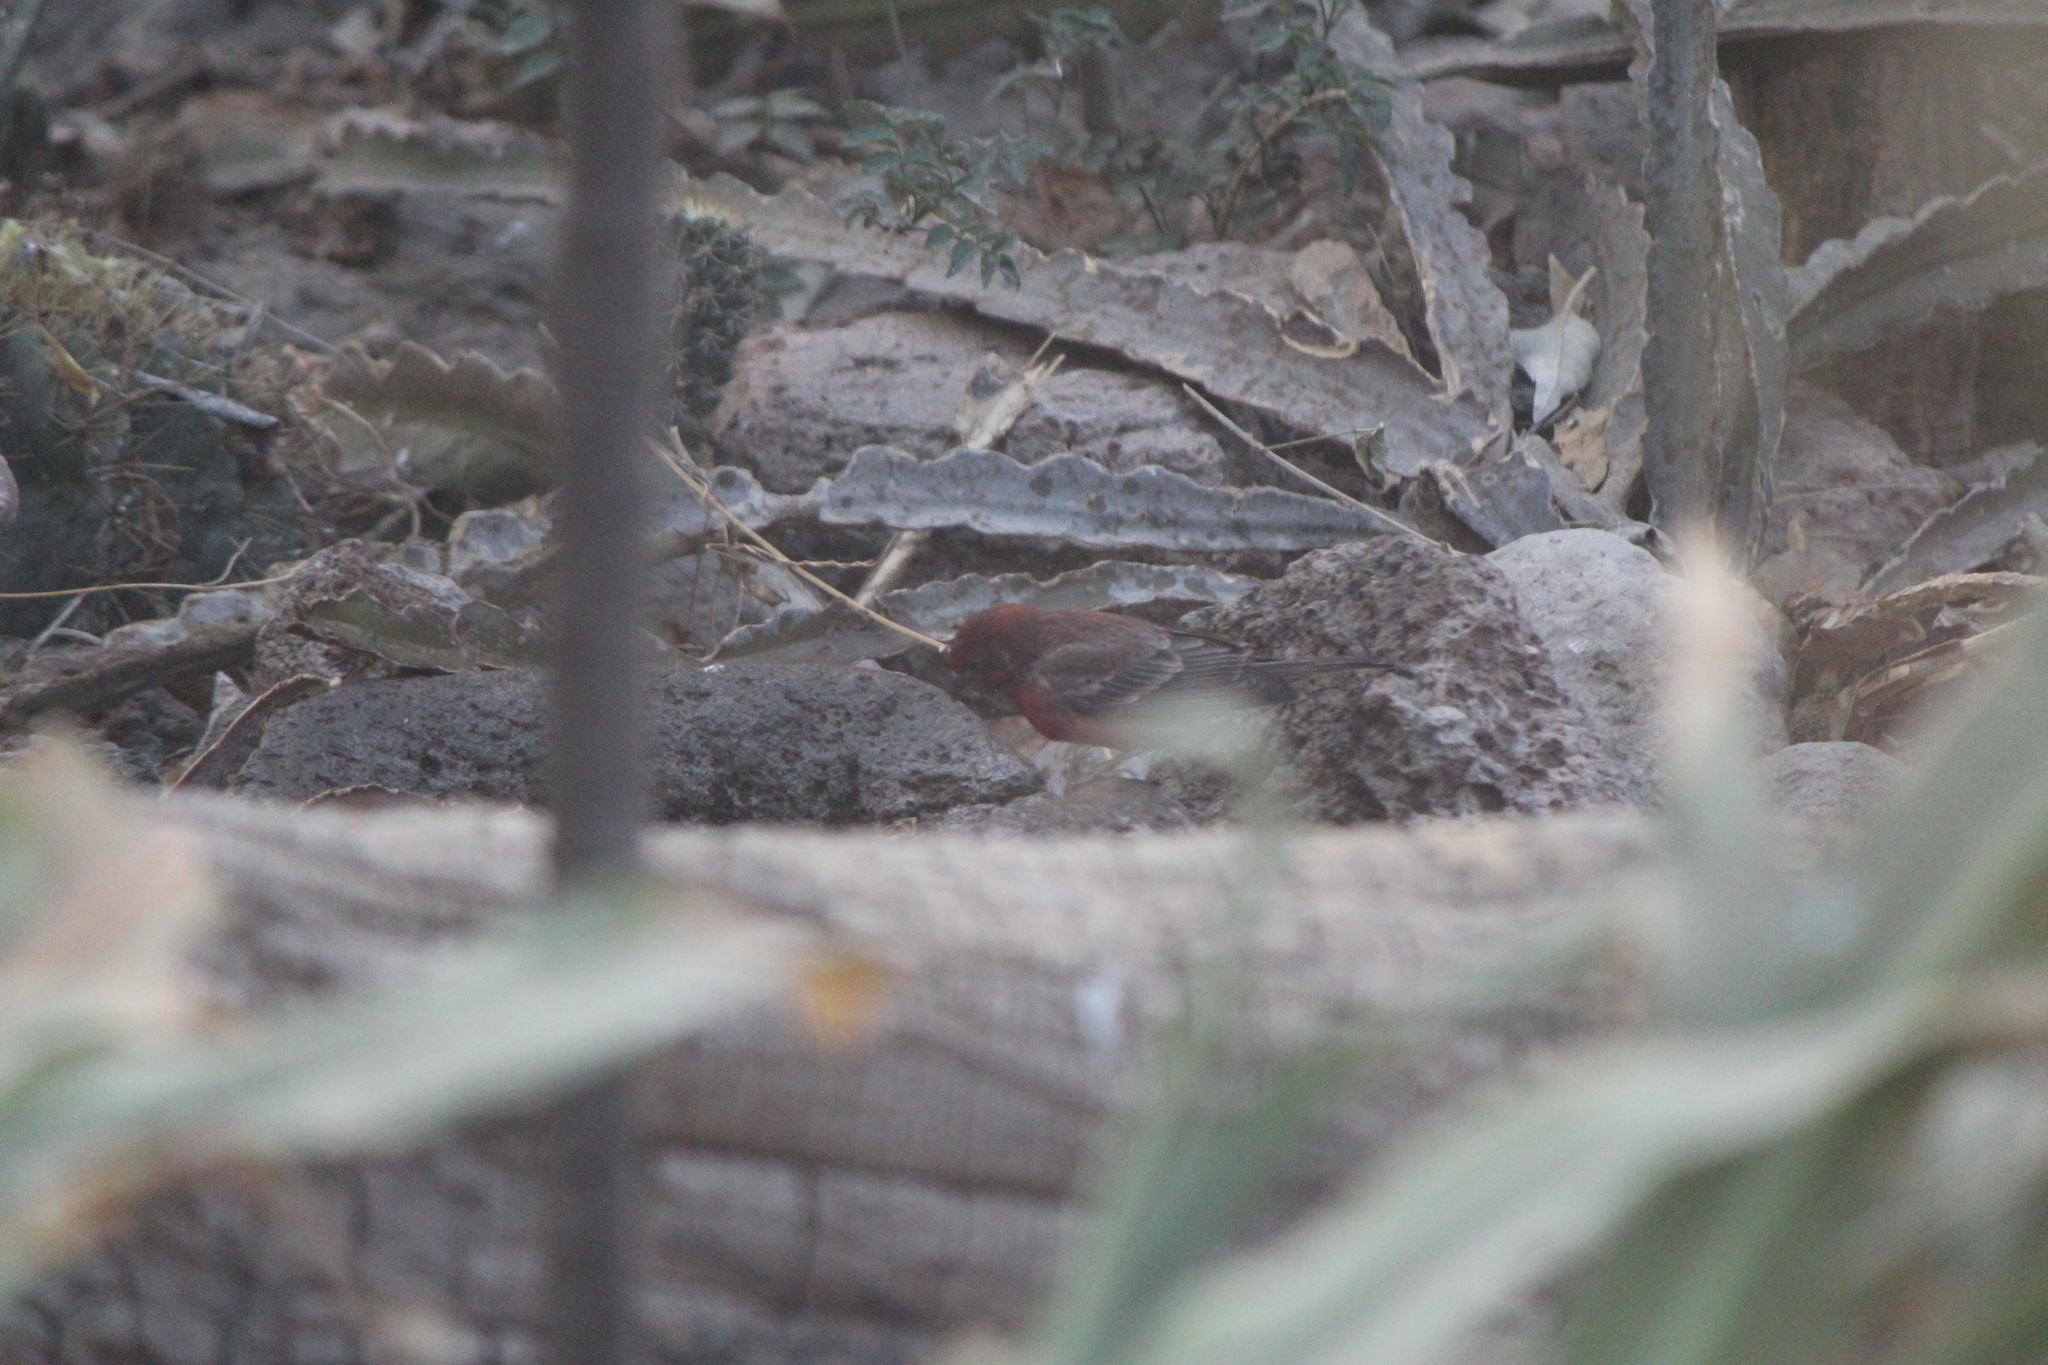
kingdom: Animalia
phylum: Chordata
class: Aves
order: Passeriformes
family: Fringillidae
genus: Haemorhous
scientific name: Haemorhous mexicanus
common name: House finch
